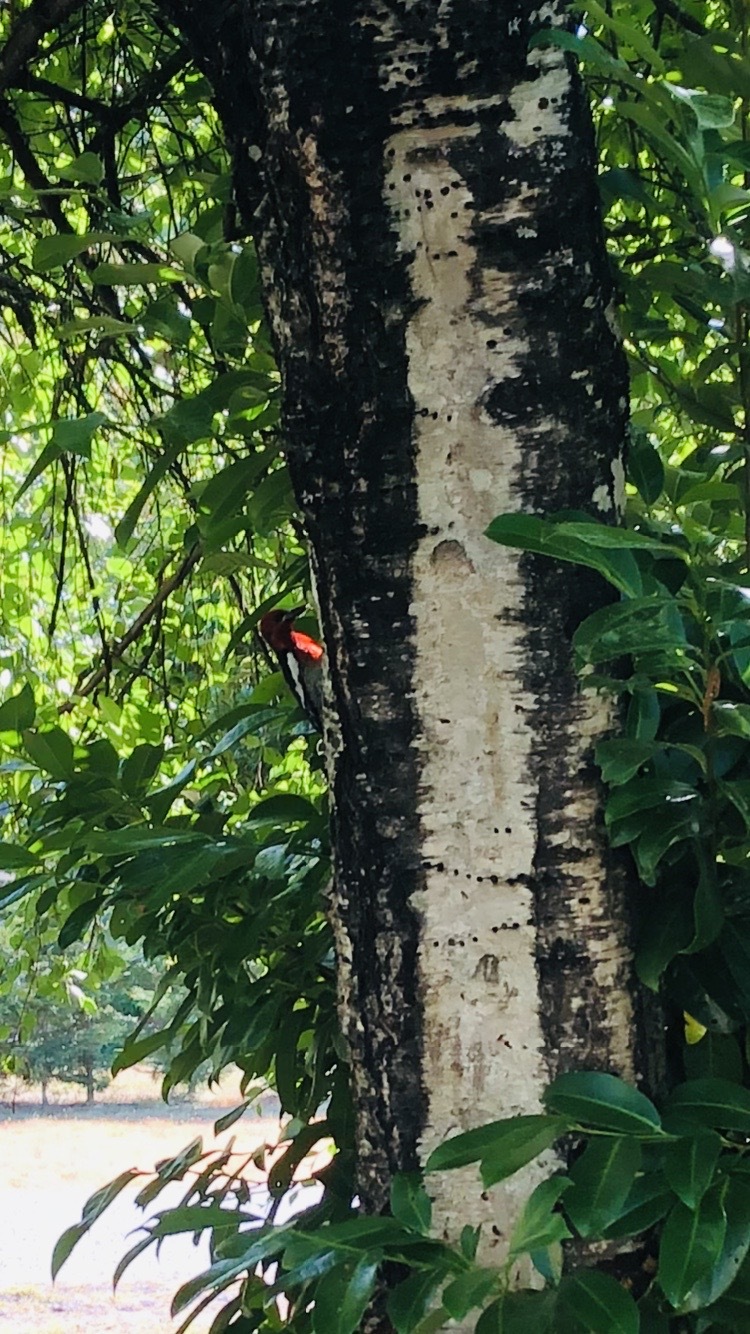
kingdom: Animalia
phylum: Chordata
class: Aves
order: Piciformes
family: Picidae
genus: Sphyrapicus
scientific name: Sphyrapicus ruber
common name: Red-breasted sapsucker
